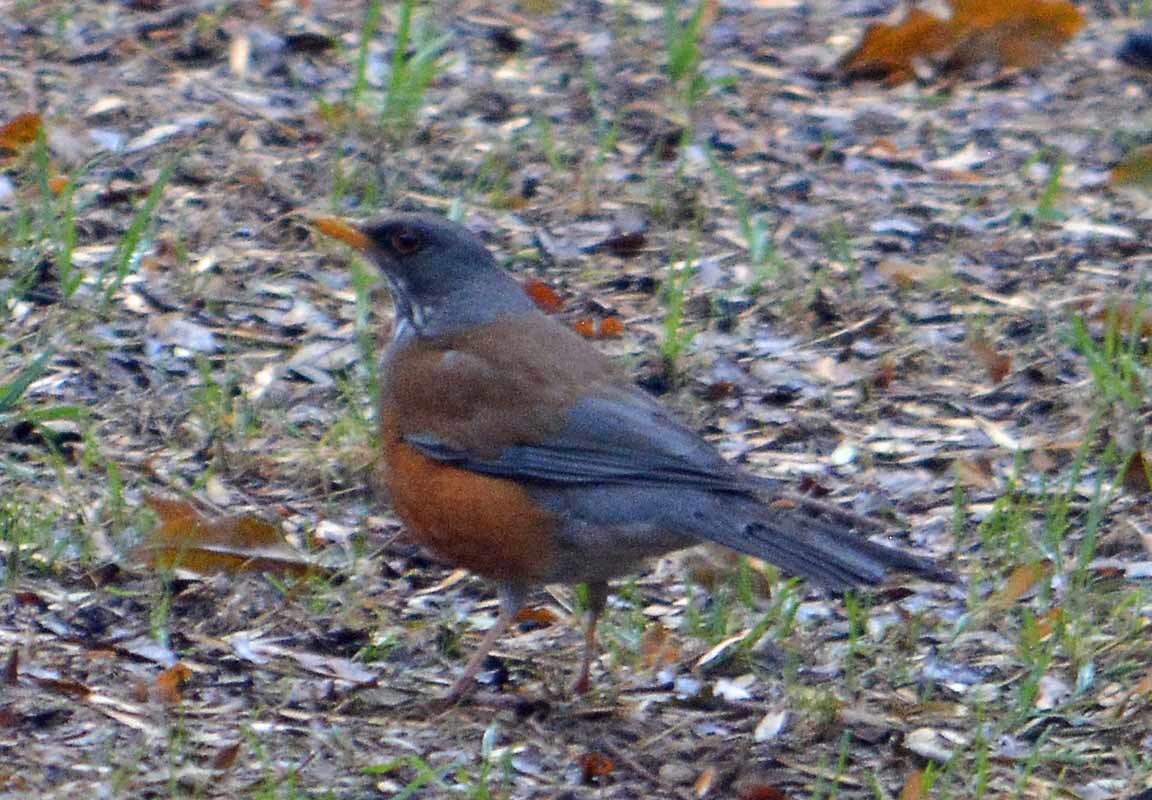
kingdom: Animalia
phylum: Chordata
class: Aves
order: Passeriformes
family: Turdidae
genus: Turdus
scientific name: Turdus rufopalliatus
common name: Rufous-backed robin
